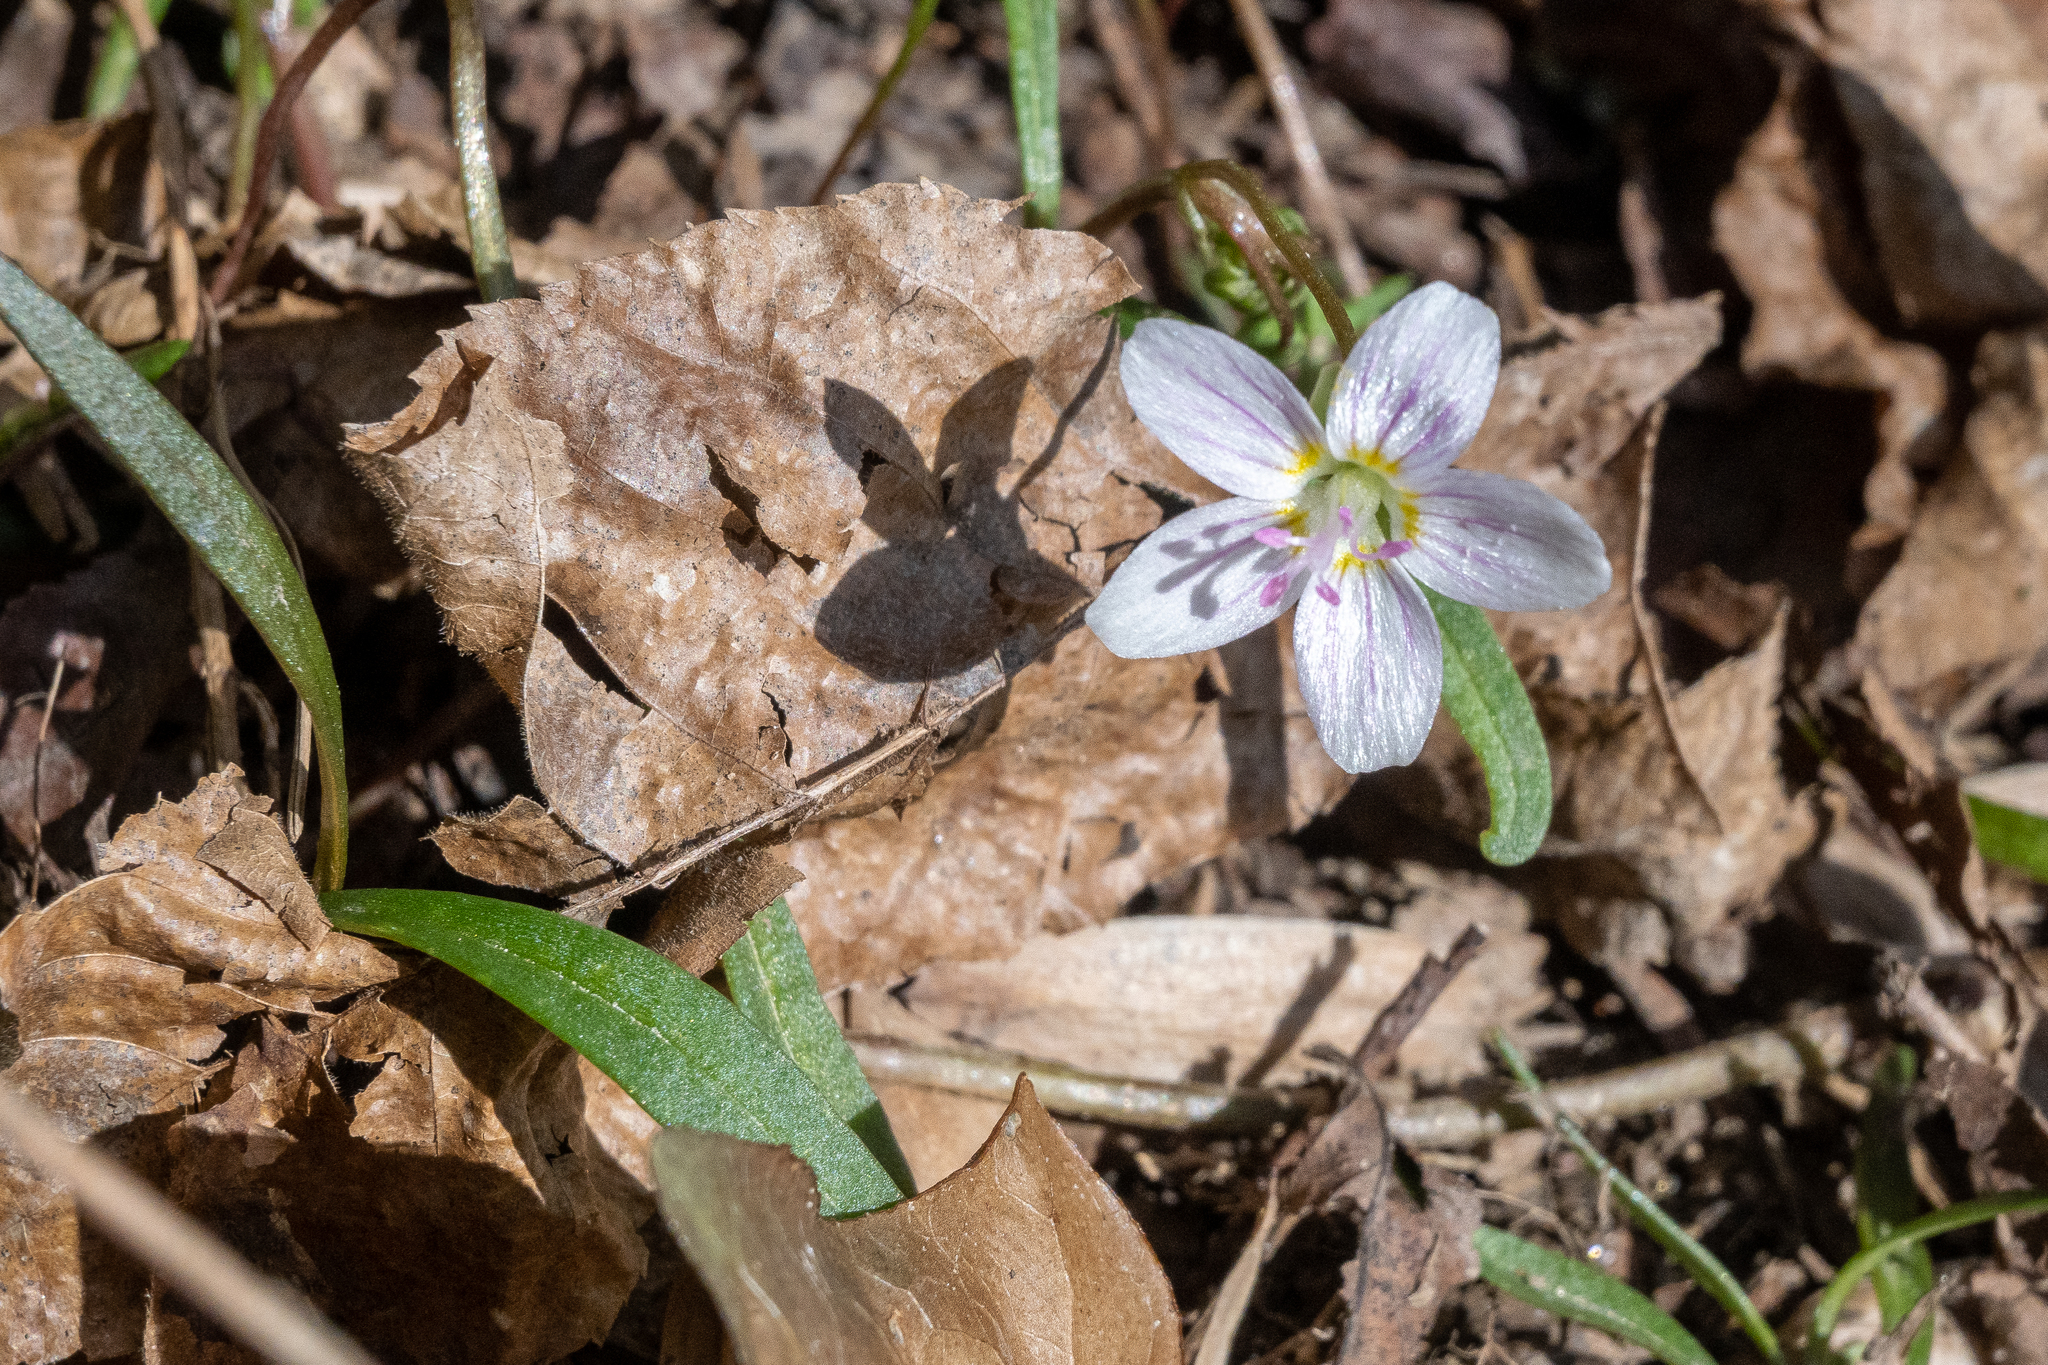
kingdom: Plantae
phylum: Tracheophyta
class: Magnoliopsida
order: Caryophyllales
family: Montiaceae
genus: Claytonia
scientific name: Claytonia virginica
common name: Virginia springbeauty
